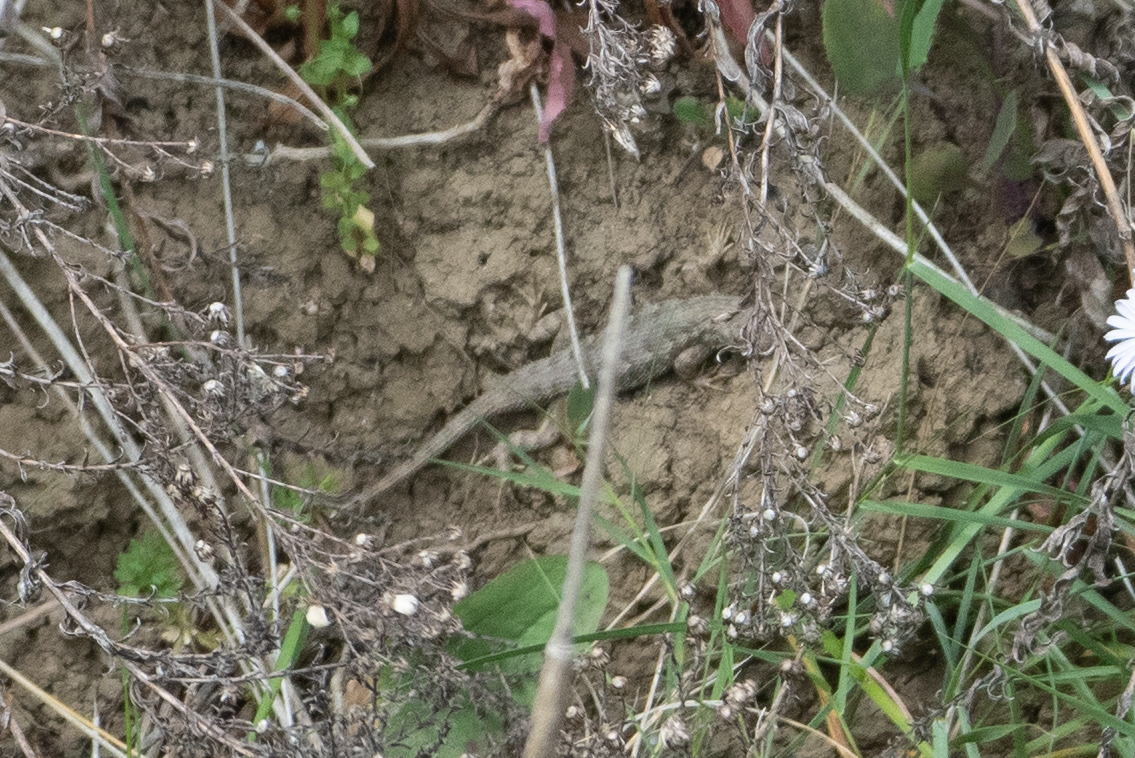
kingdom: Animalia
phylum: Chordata
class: Squamata
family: Phrynosomatidae
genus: Sceloporus
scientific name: Sceloporus occidentalis
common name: Western fence lizard
